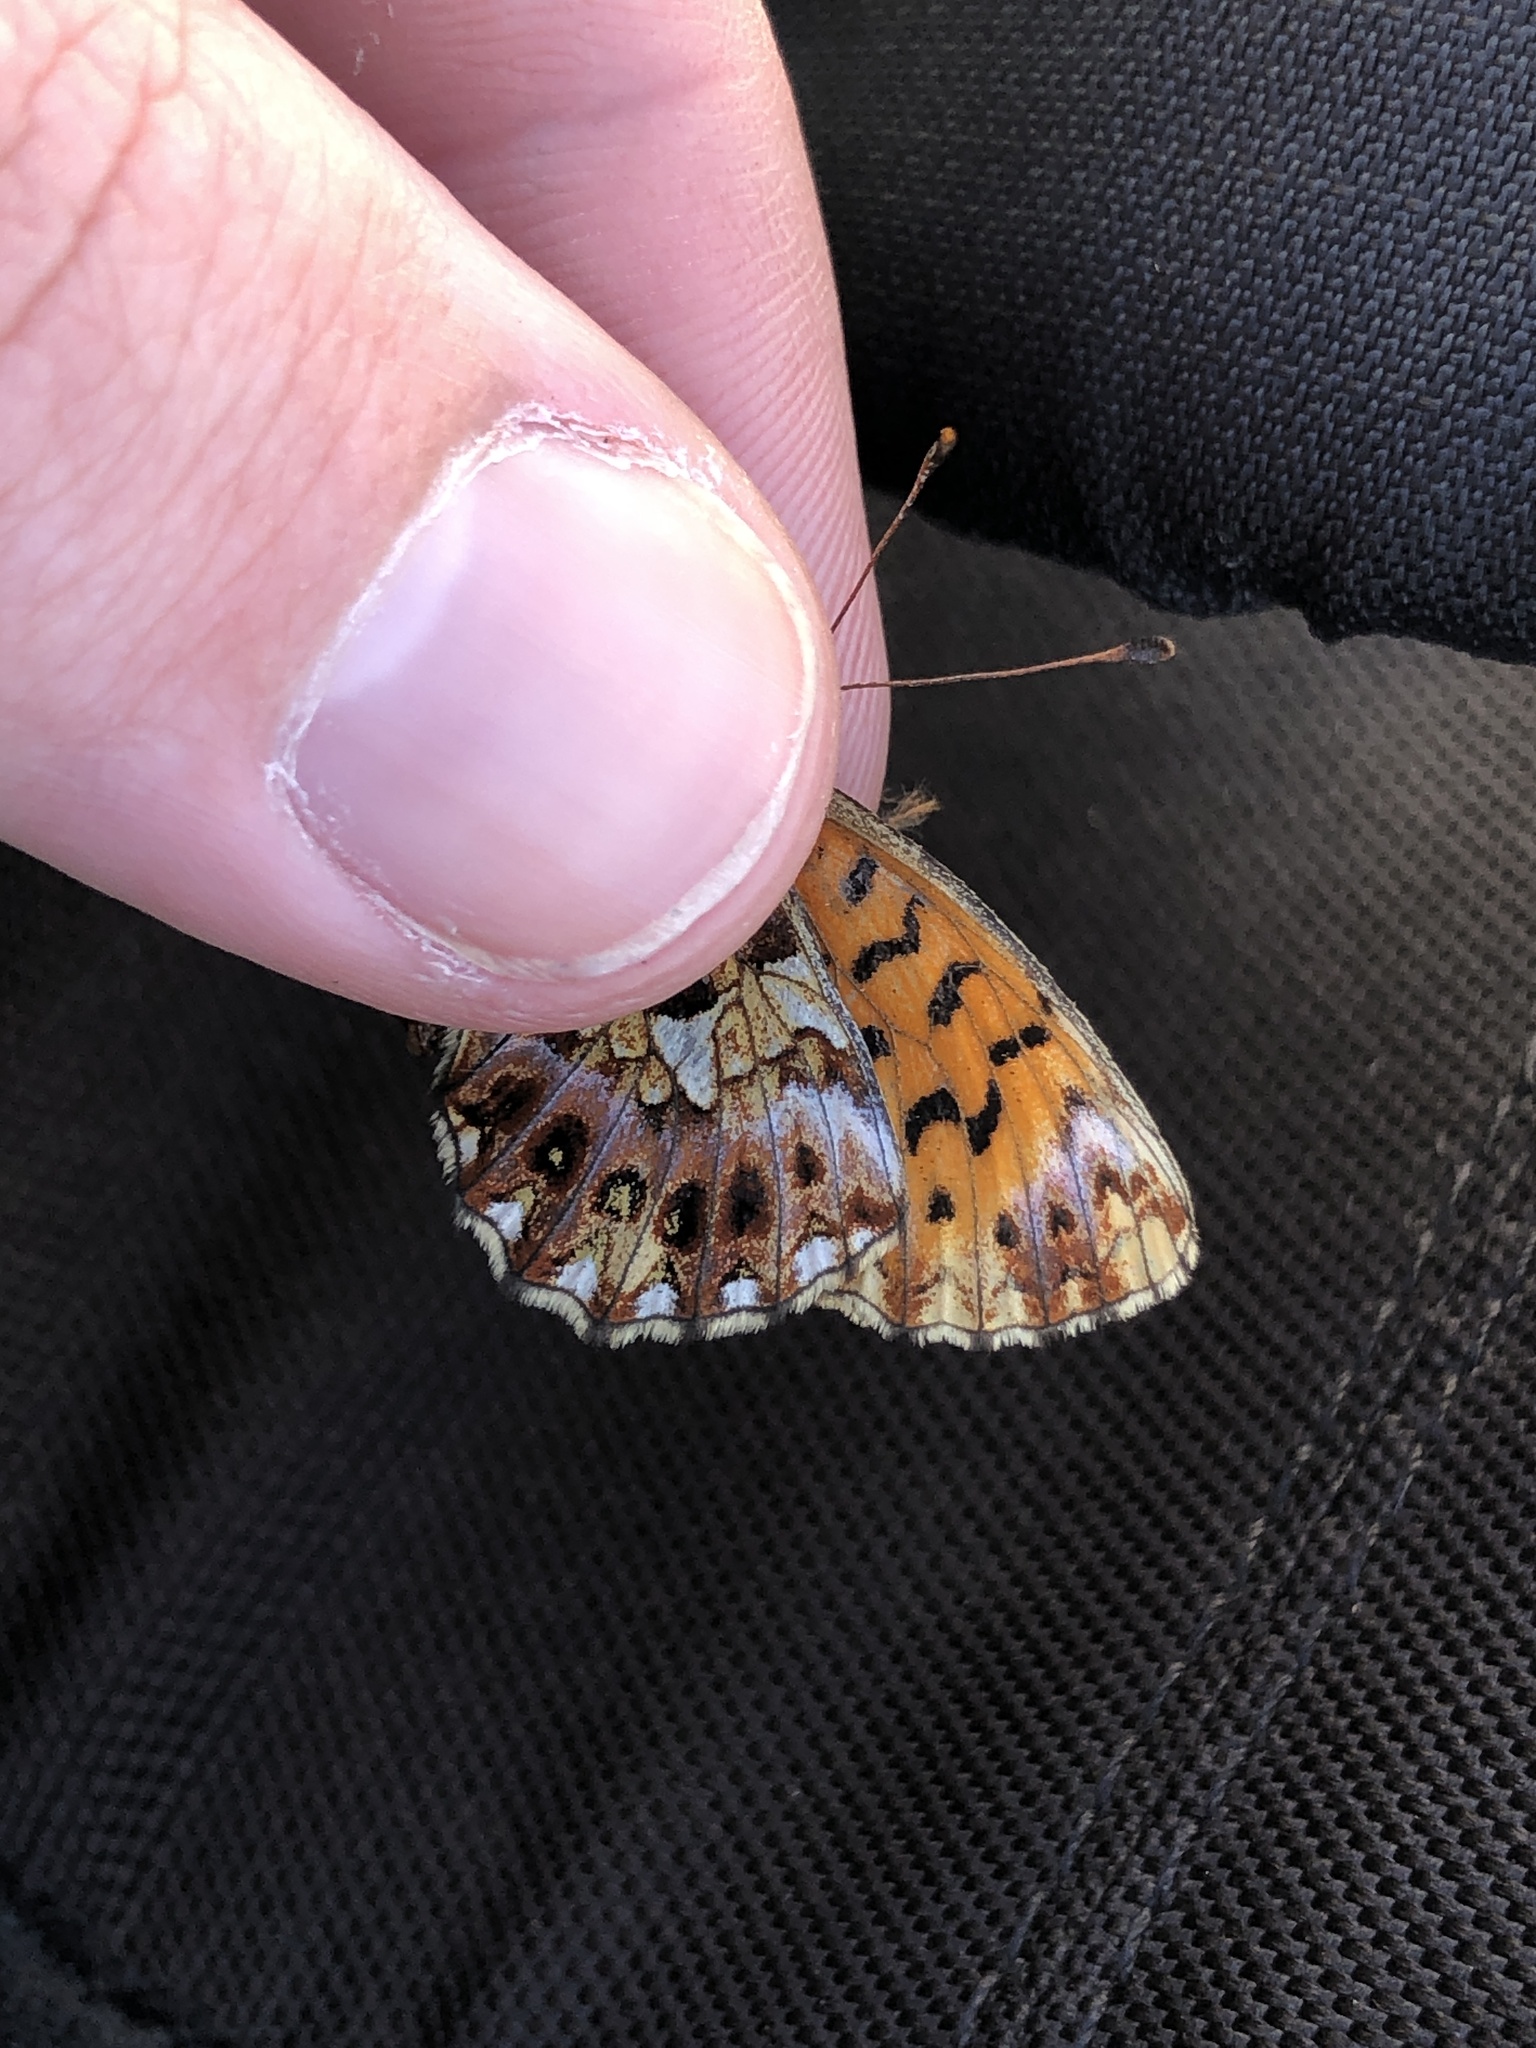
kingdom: Animalia
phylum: Arthropoda
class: Insecta
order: Lepidoptera
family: Nymphalidae
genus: Boloria
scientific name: Boloria dia
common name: Weaver's fritillary
